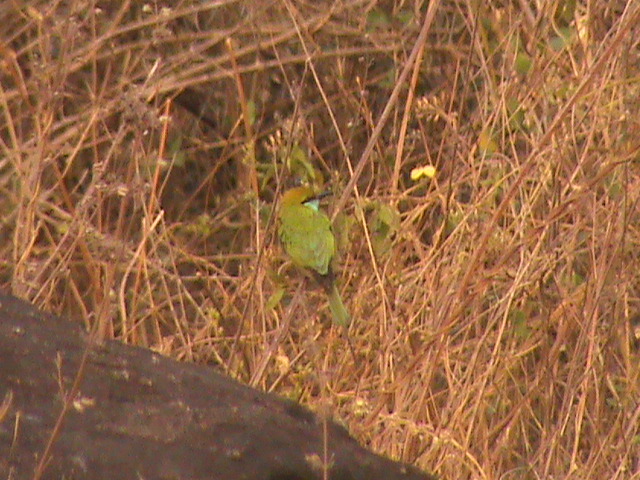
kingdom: Animalia
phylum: Chordata
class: Aves
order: Coraciiformes
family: Meropidae
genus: Merops
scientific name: Merops orientalis
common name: Green bee-eater
